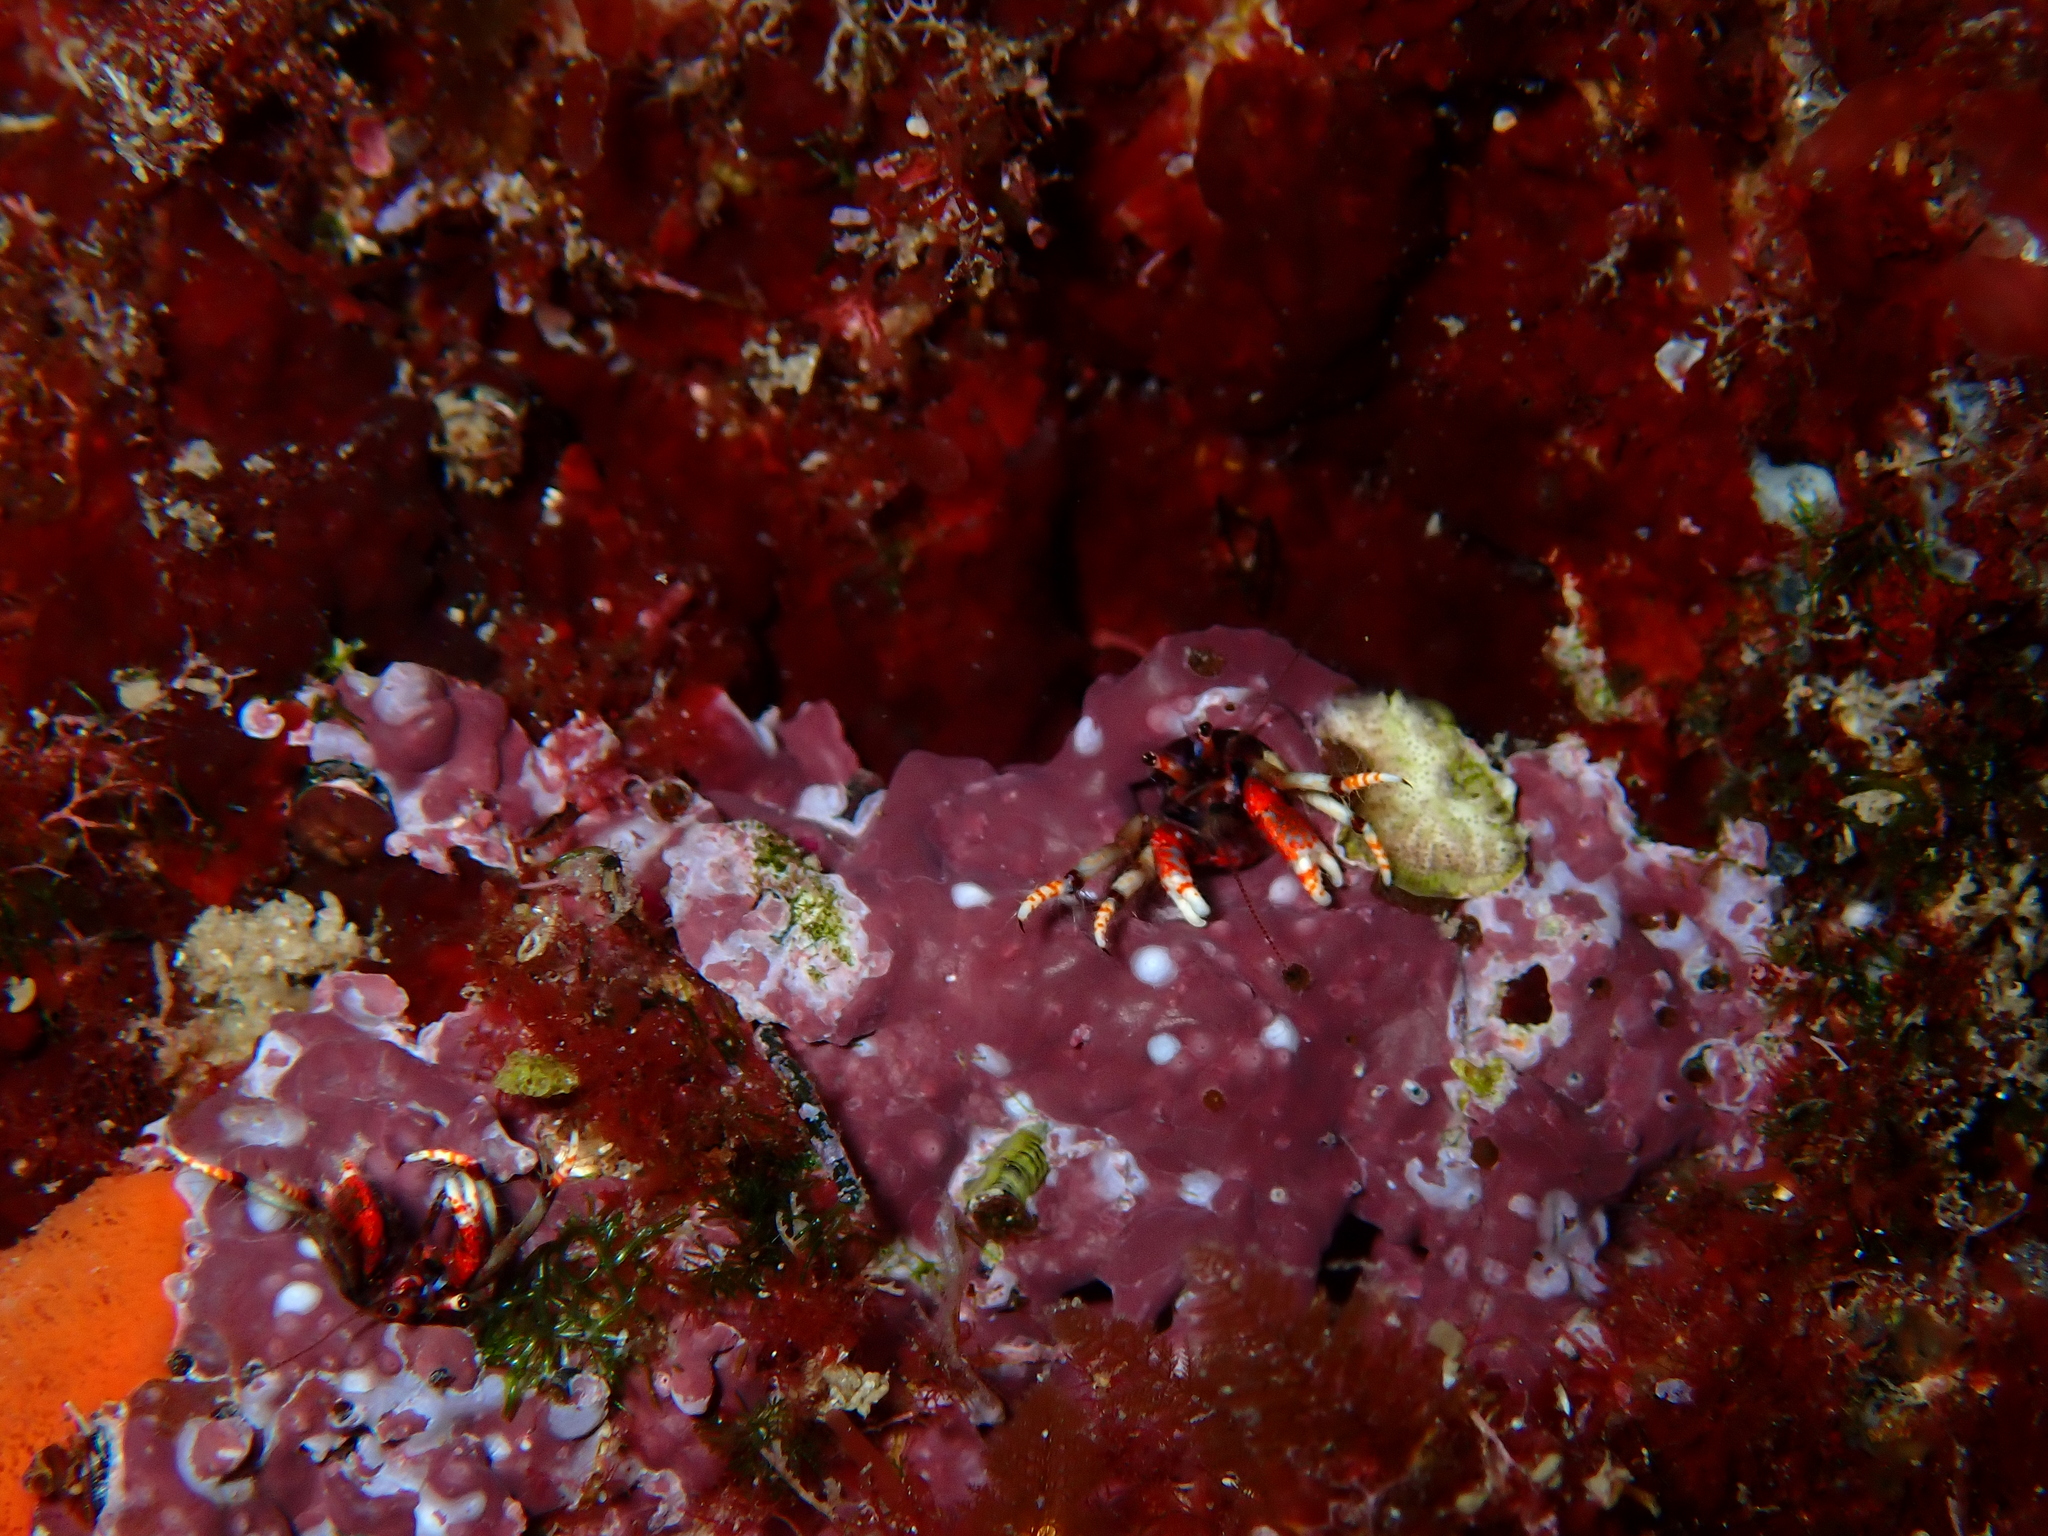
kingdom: Animalia
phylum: Arthropoda
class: Malacostraca
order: Decapoda
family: Diogenidae
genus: Calcinus
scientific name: Calcinus tubularis
